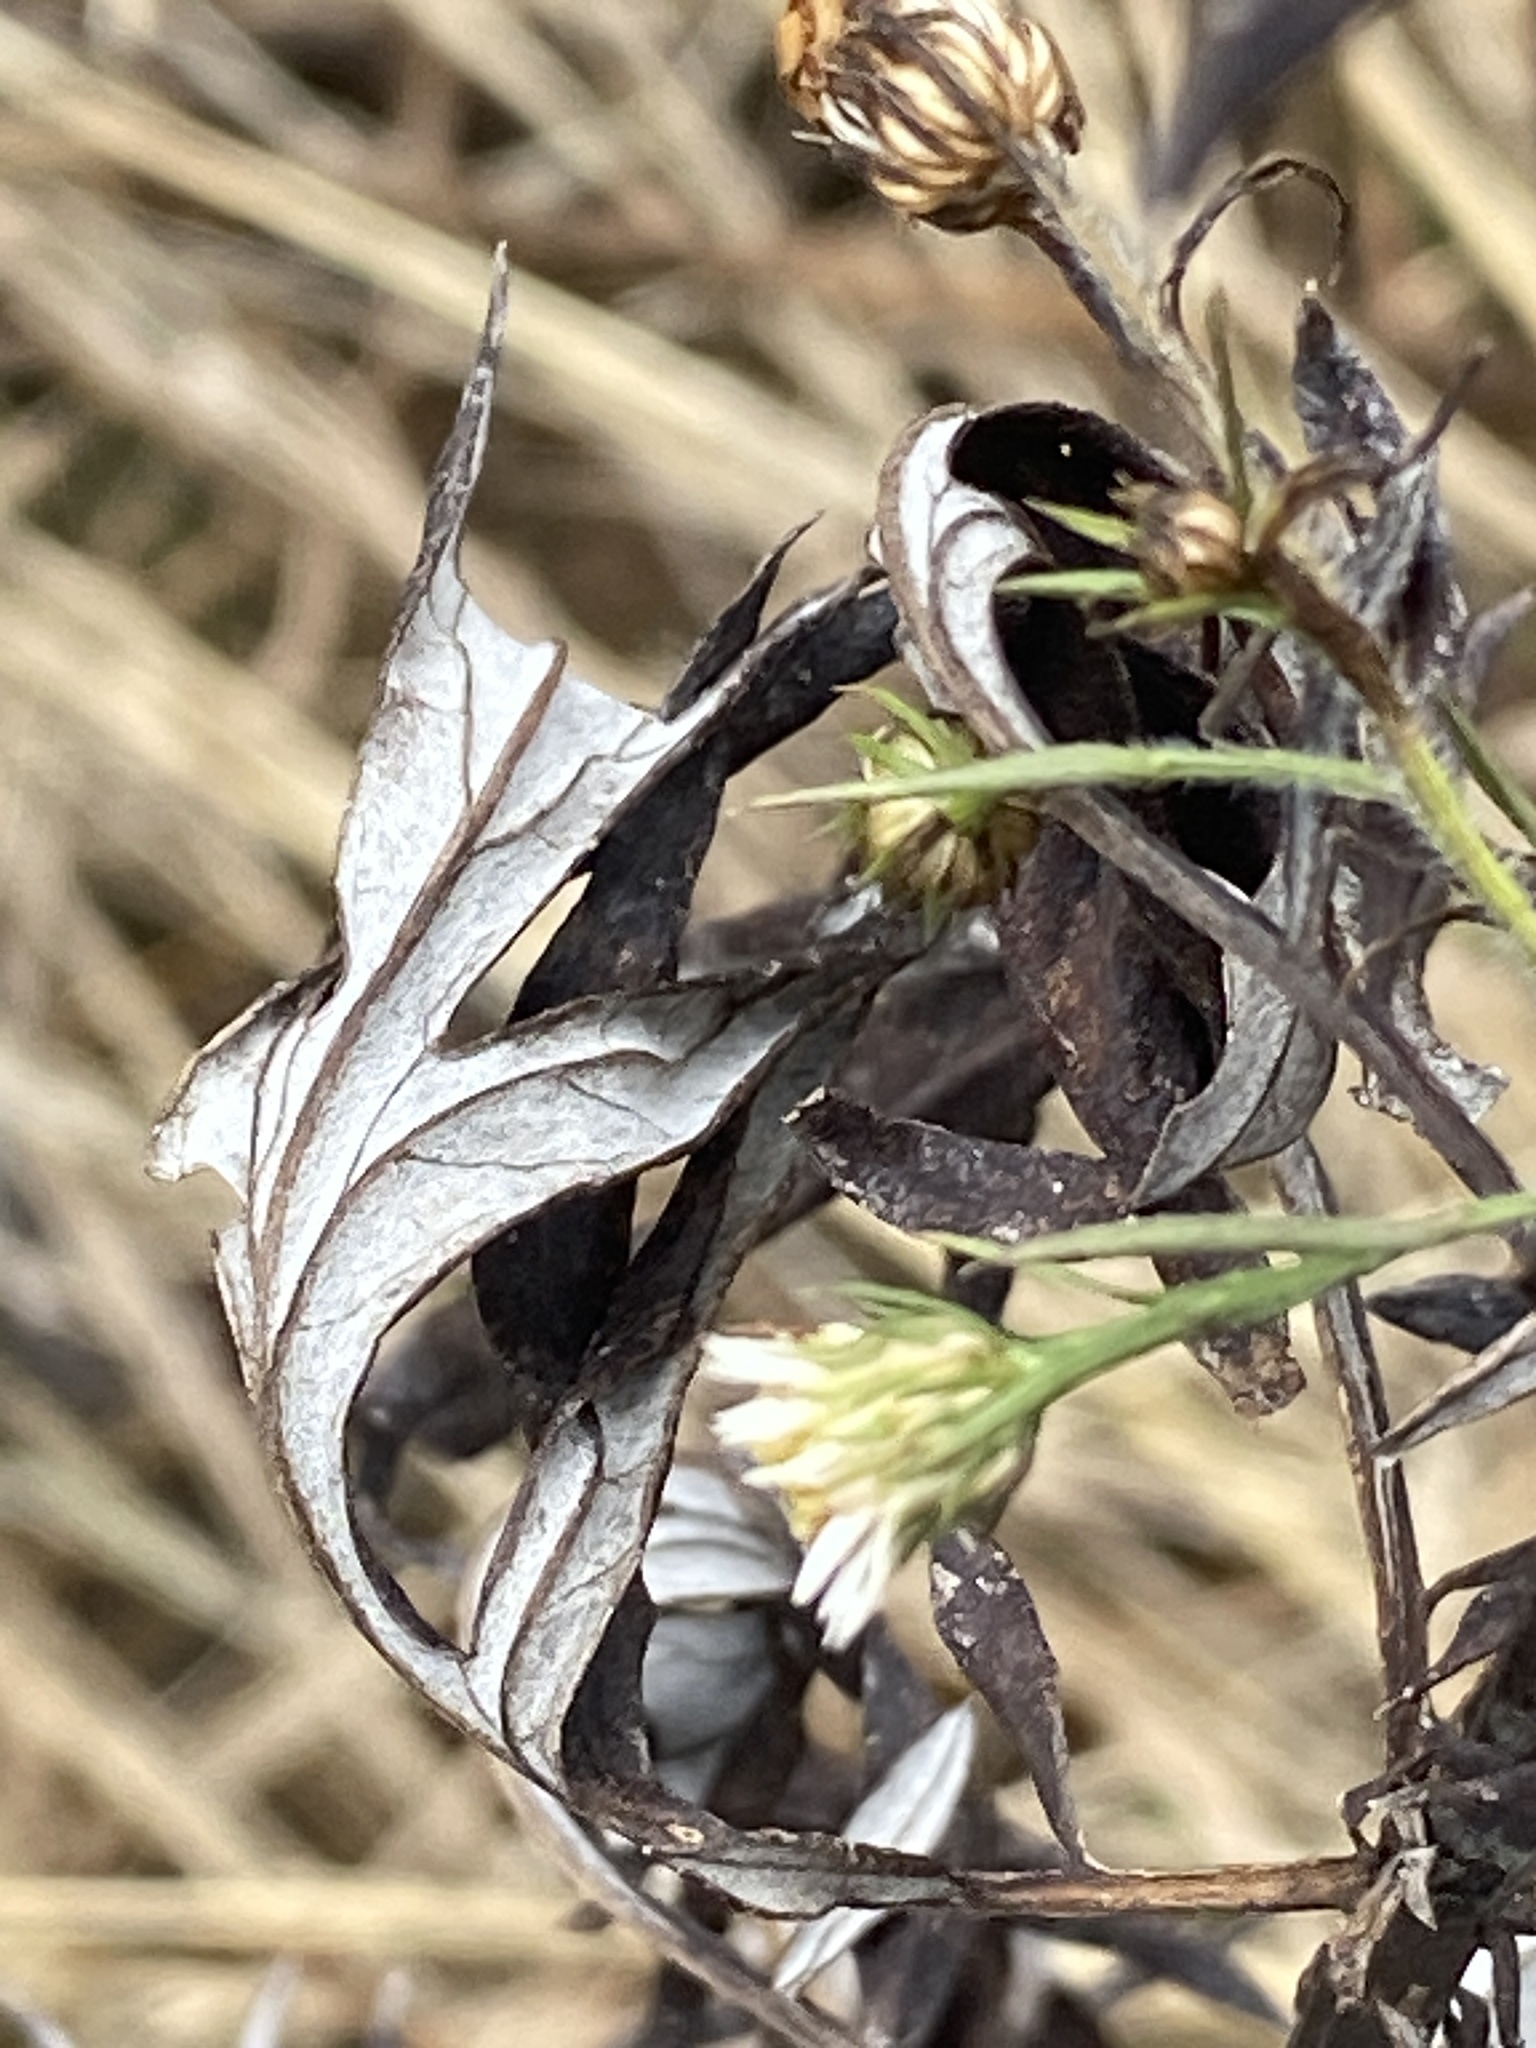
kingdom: Plantae
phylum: Tracheophyta
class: Magnoliopsida
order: Asterales
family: Asteraceae
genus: Symphyotrichum
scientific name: Symphyotrichum pilosum
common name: Awl aster
